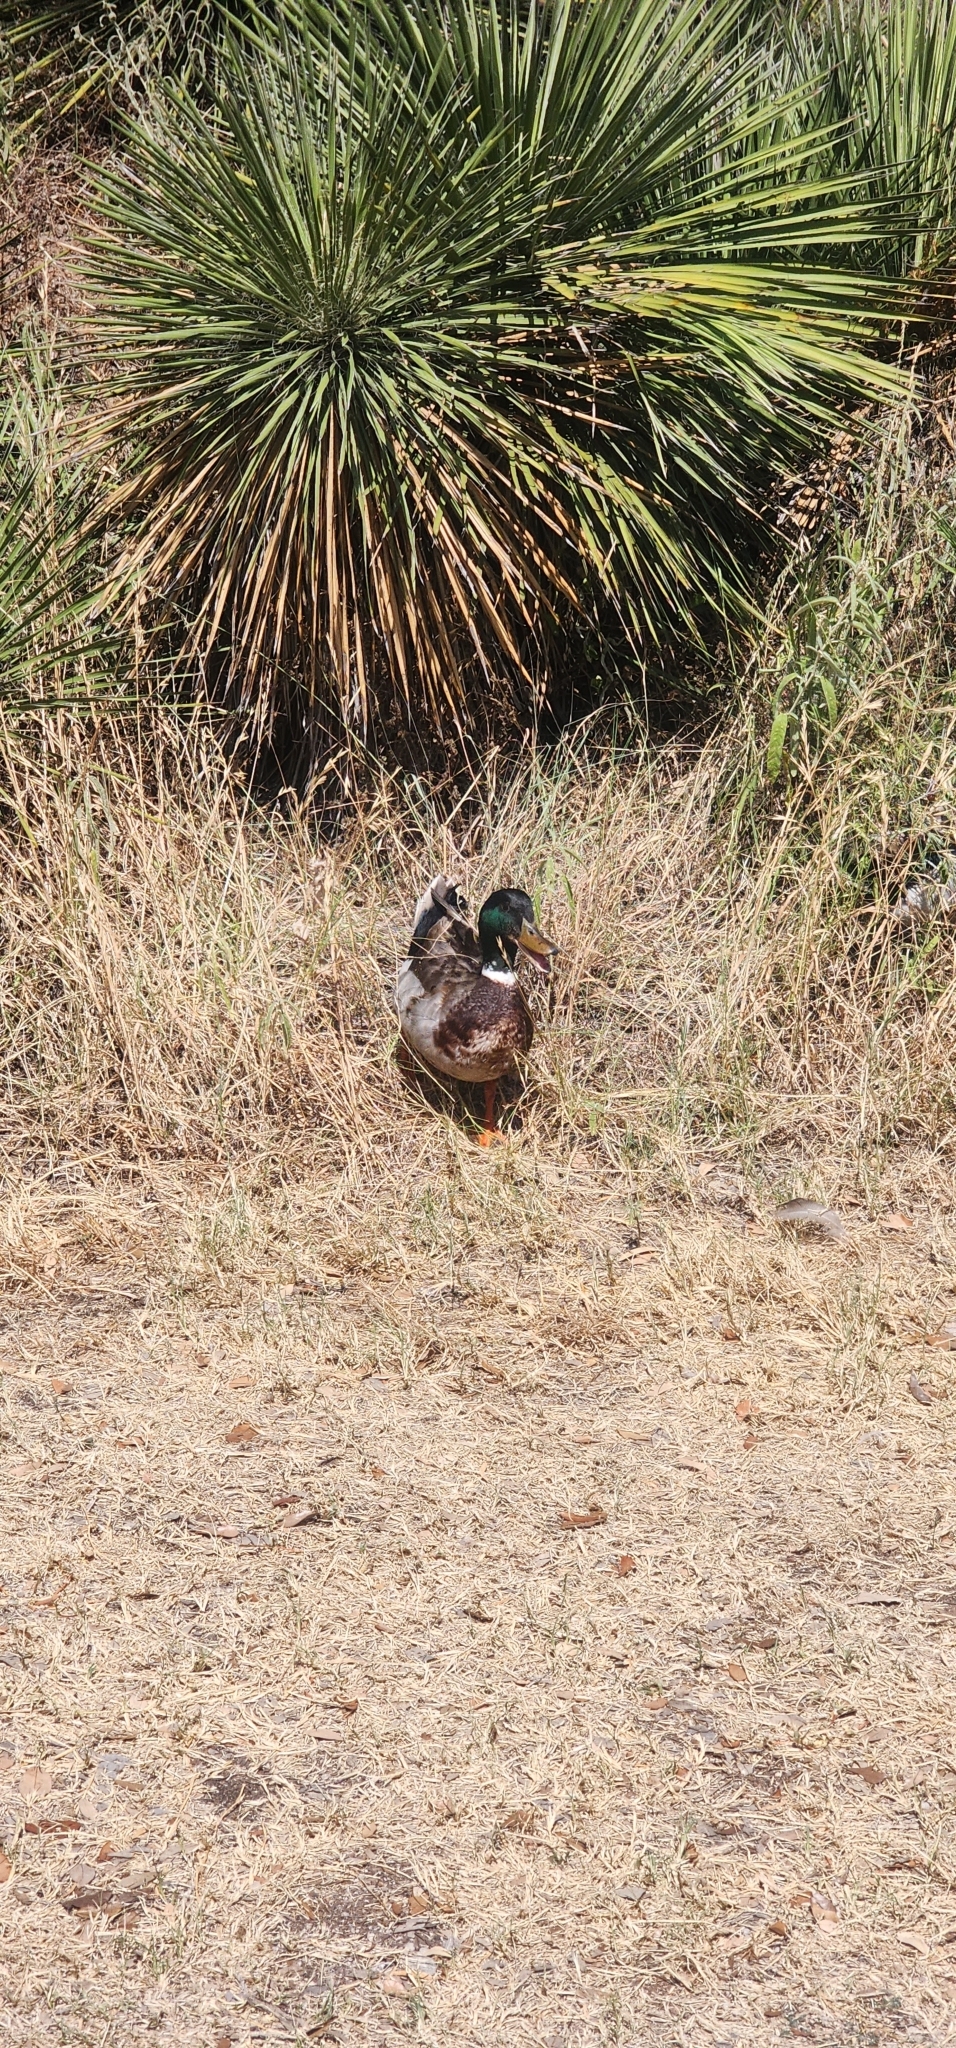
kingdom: Animalia
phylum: Chordata
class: Aves
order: Anseriformes
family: Anatidae
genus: Anas
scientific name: Anas platyrhynchos
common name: Mallard
